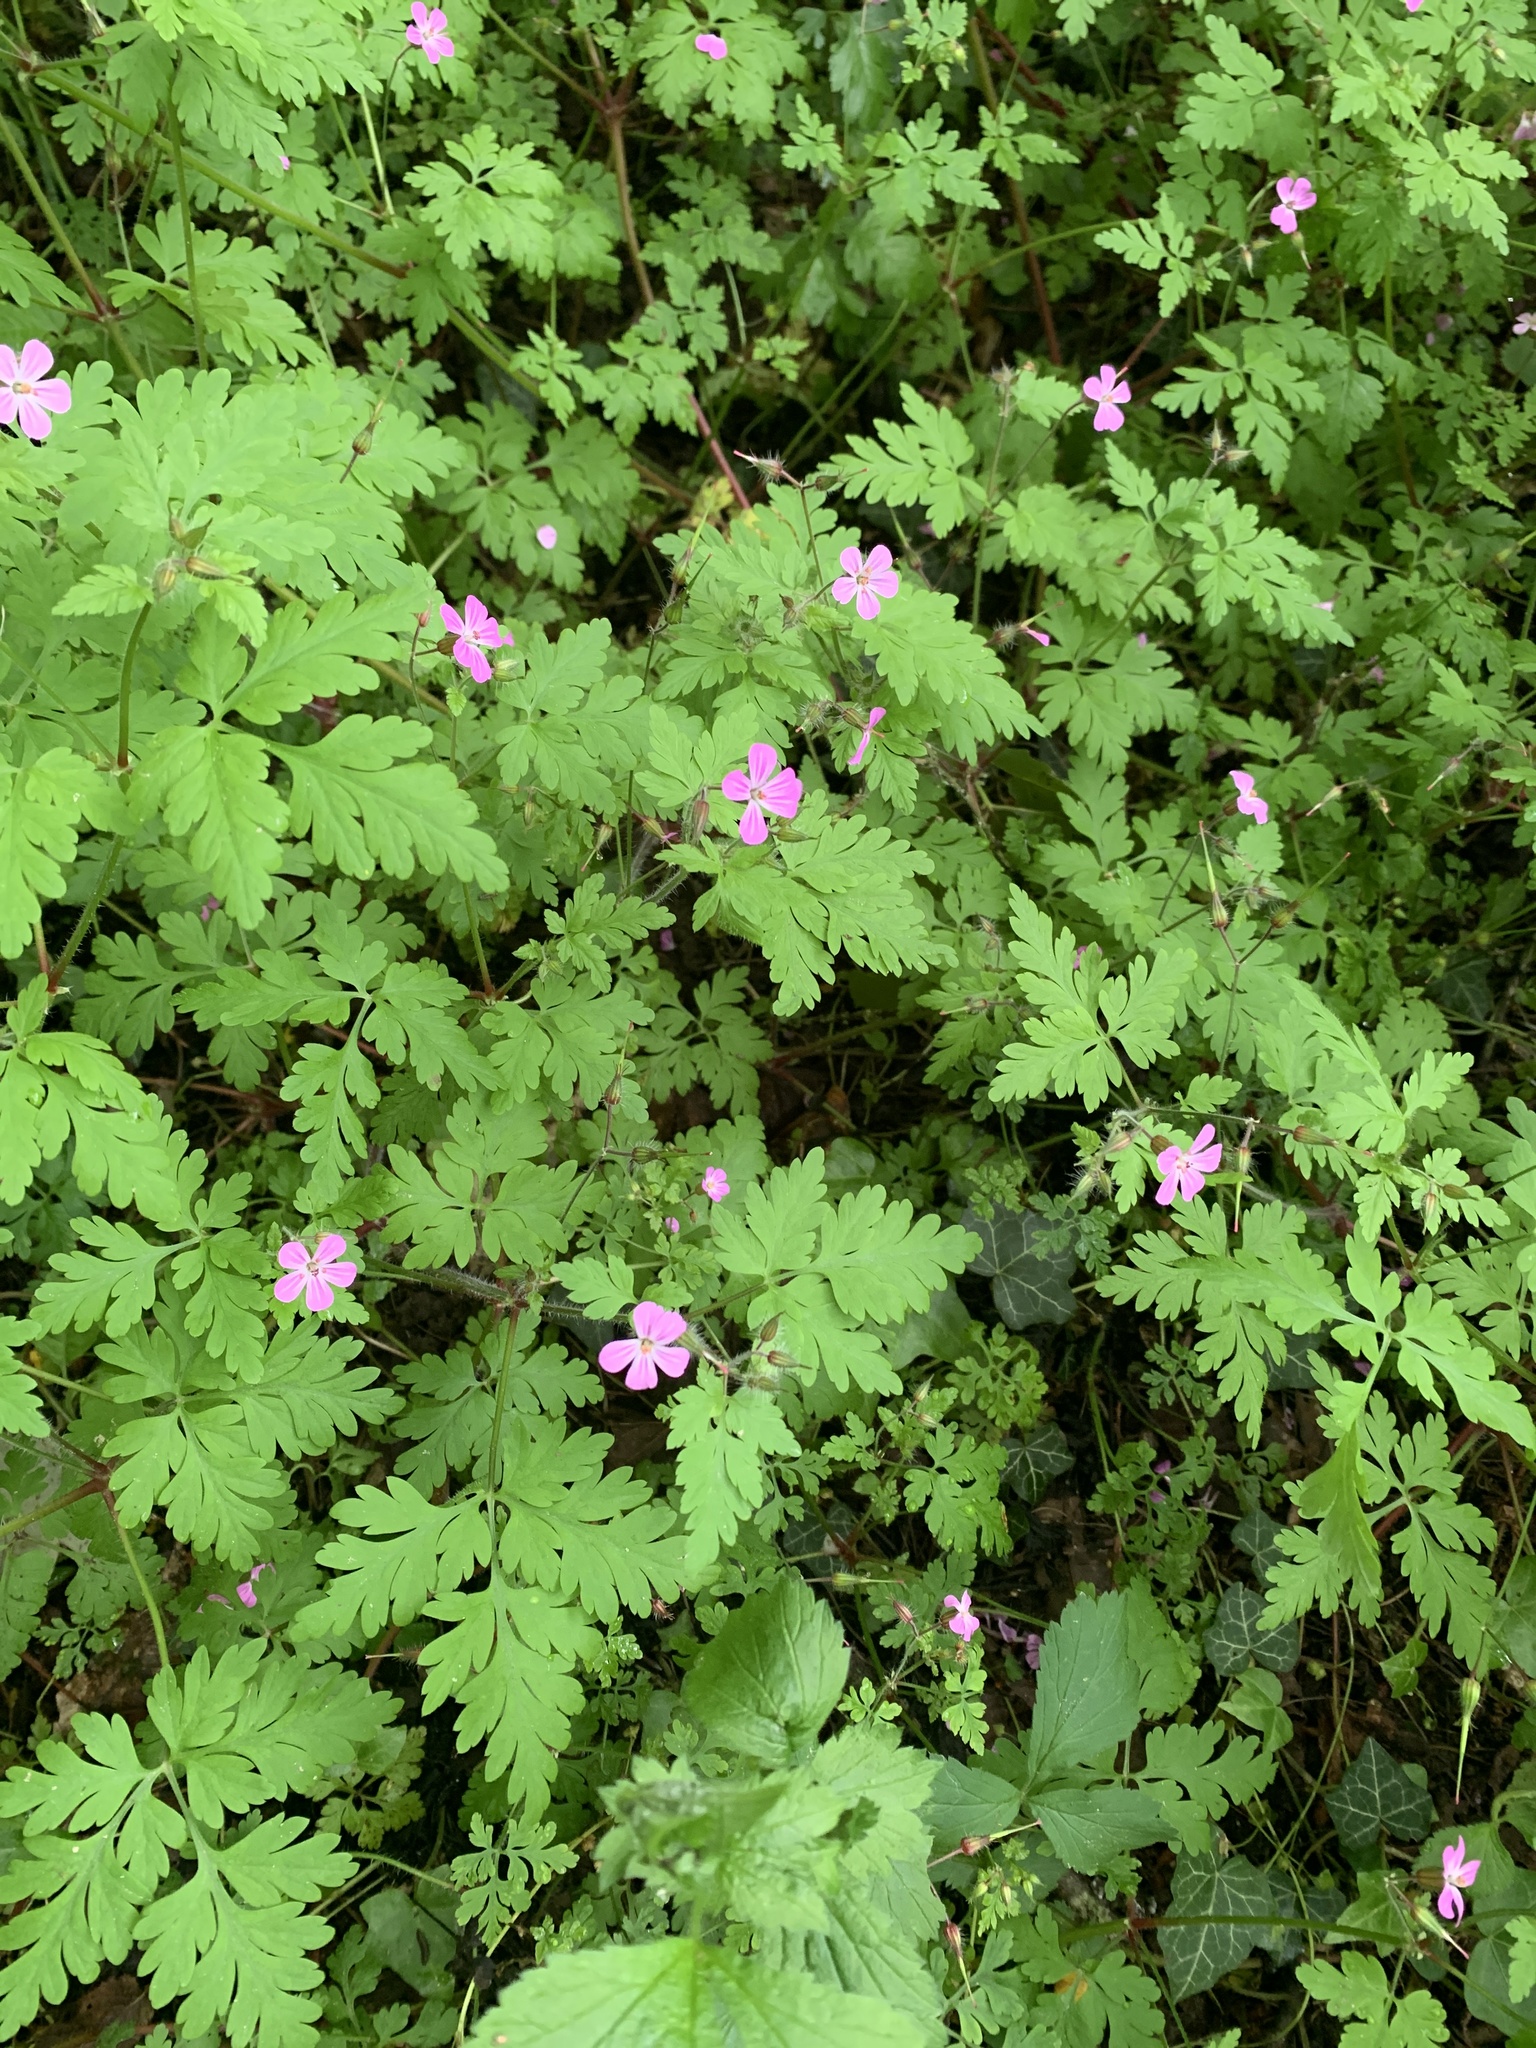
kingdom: Plantae
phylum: Tracheophyta
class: Magnoliopsida
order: Geraniales
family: Geraniaceae
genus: Geranium
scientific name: Geranium robertianum
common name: Herb-robert
